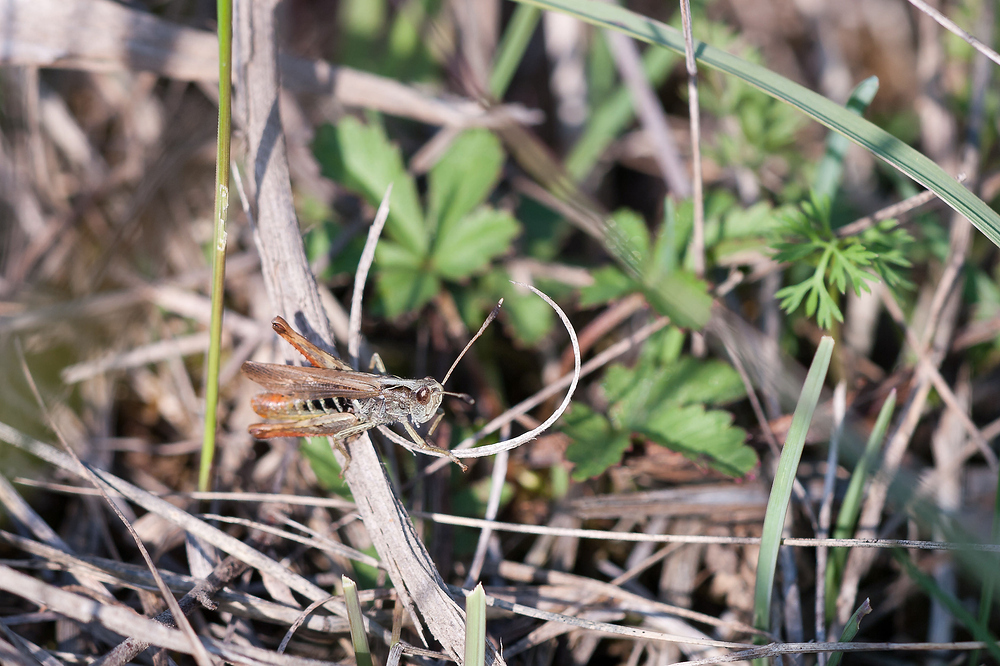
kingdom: Animalia
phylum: Arthropoda
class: Insecta
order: Orthoptera
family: Acrididae
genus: Gomphocerippus
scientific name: Gomphocerippus rufus
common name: Rufous grasshopper
